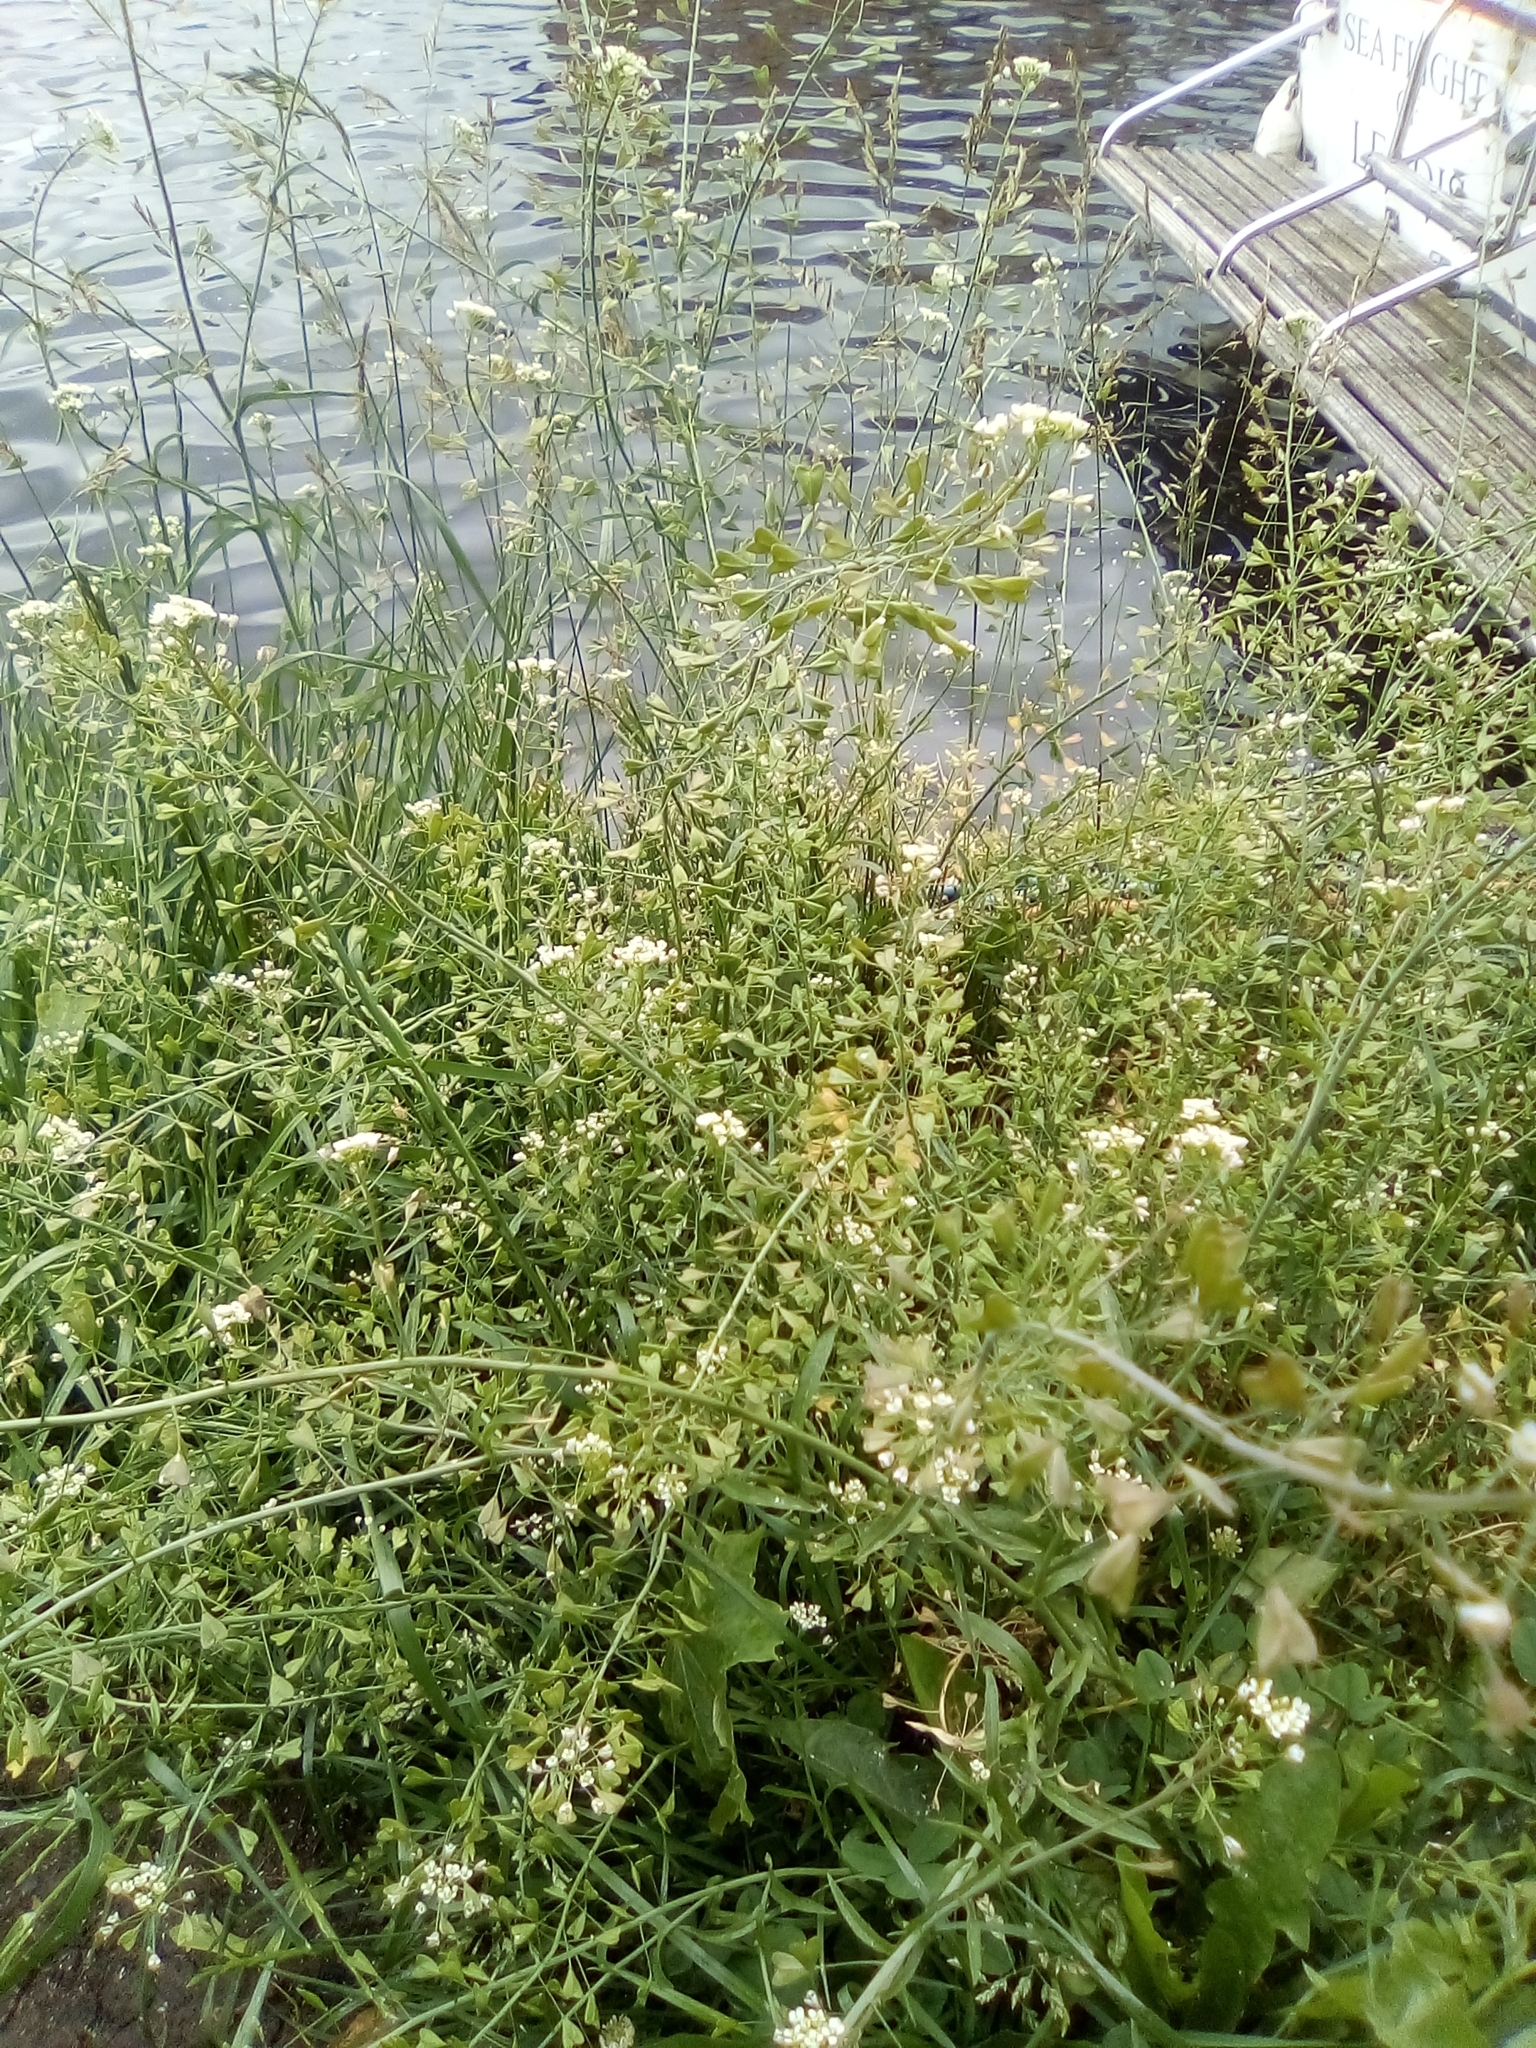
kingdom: Plantae
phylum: Tracheophyta
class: Magnoliopsida
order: Brassicales
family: Brassicaceae
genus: Capsella
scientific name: Capsella bursa-pastoris
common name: Shepherd's purse
